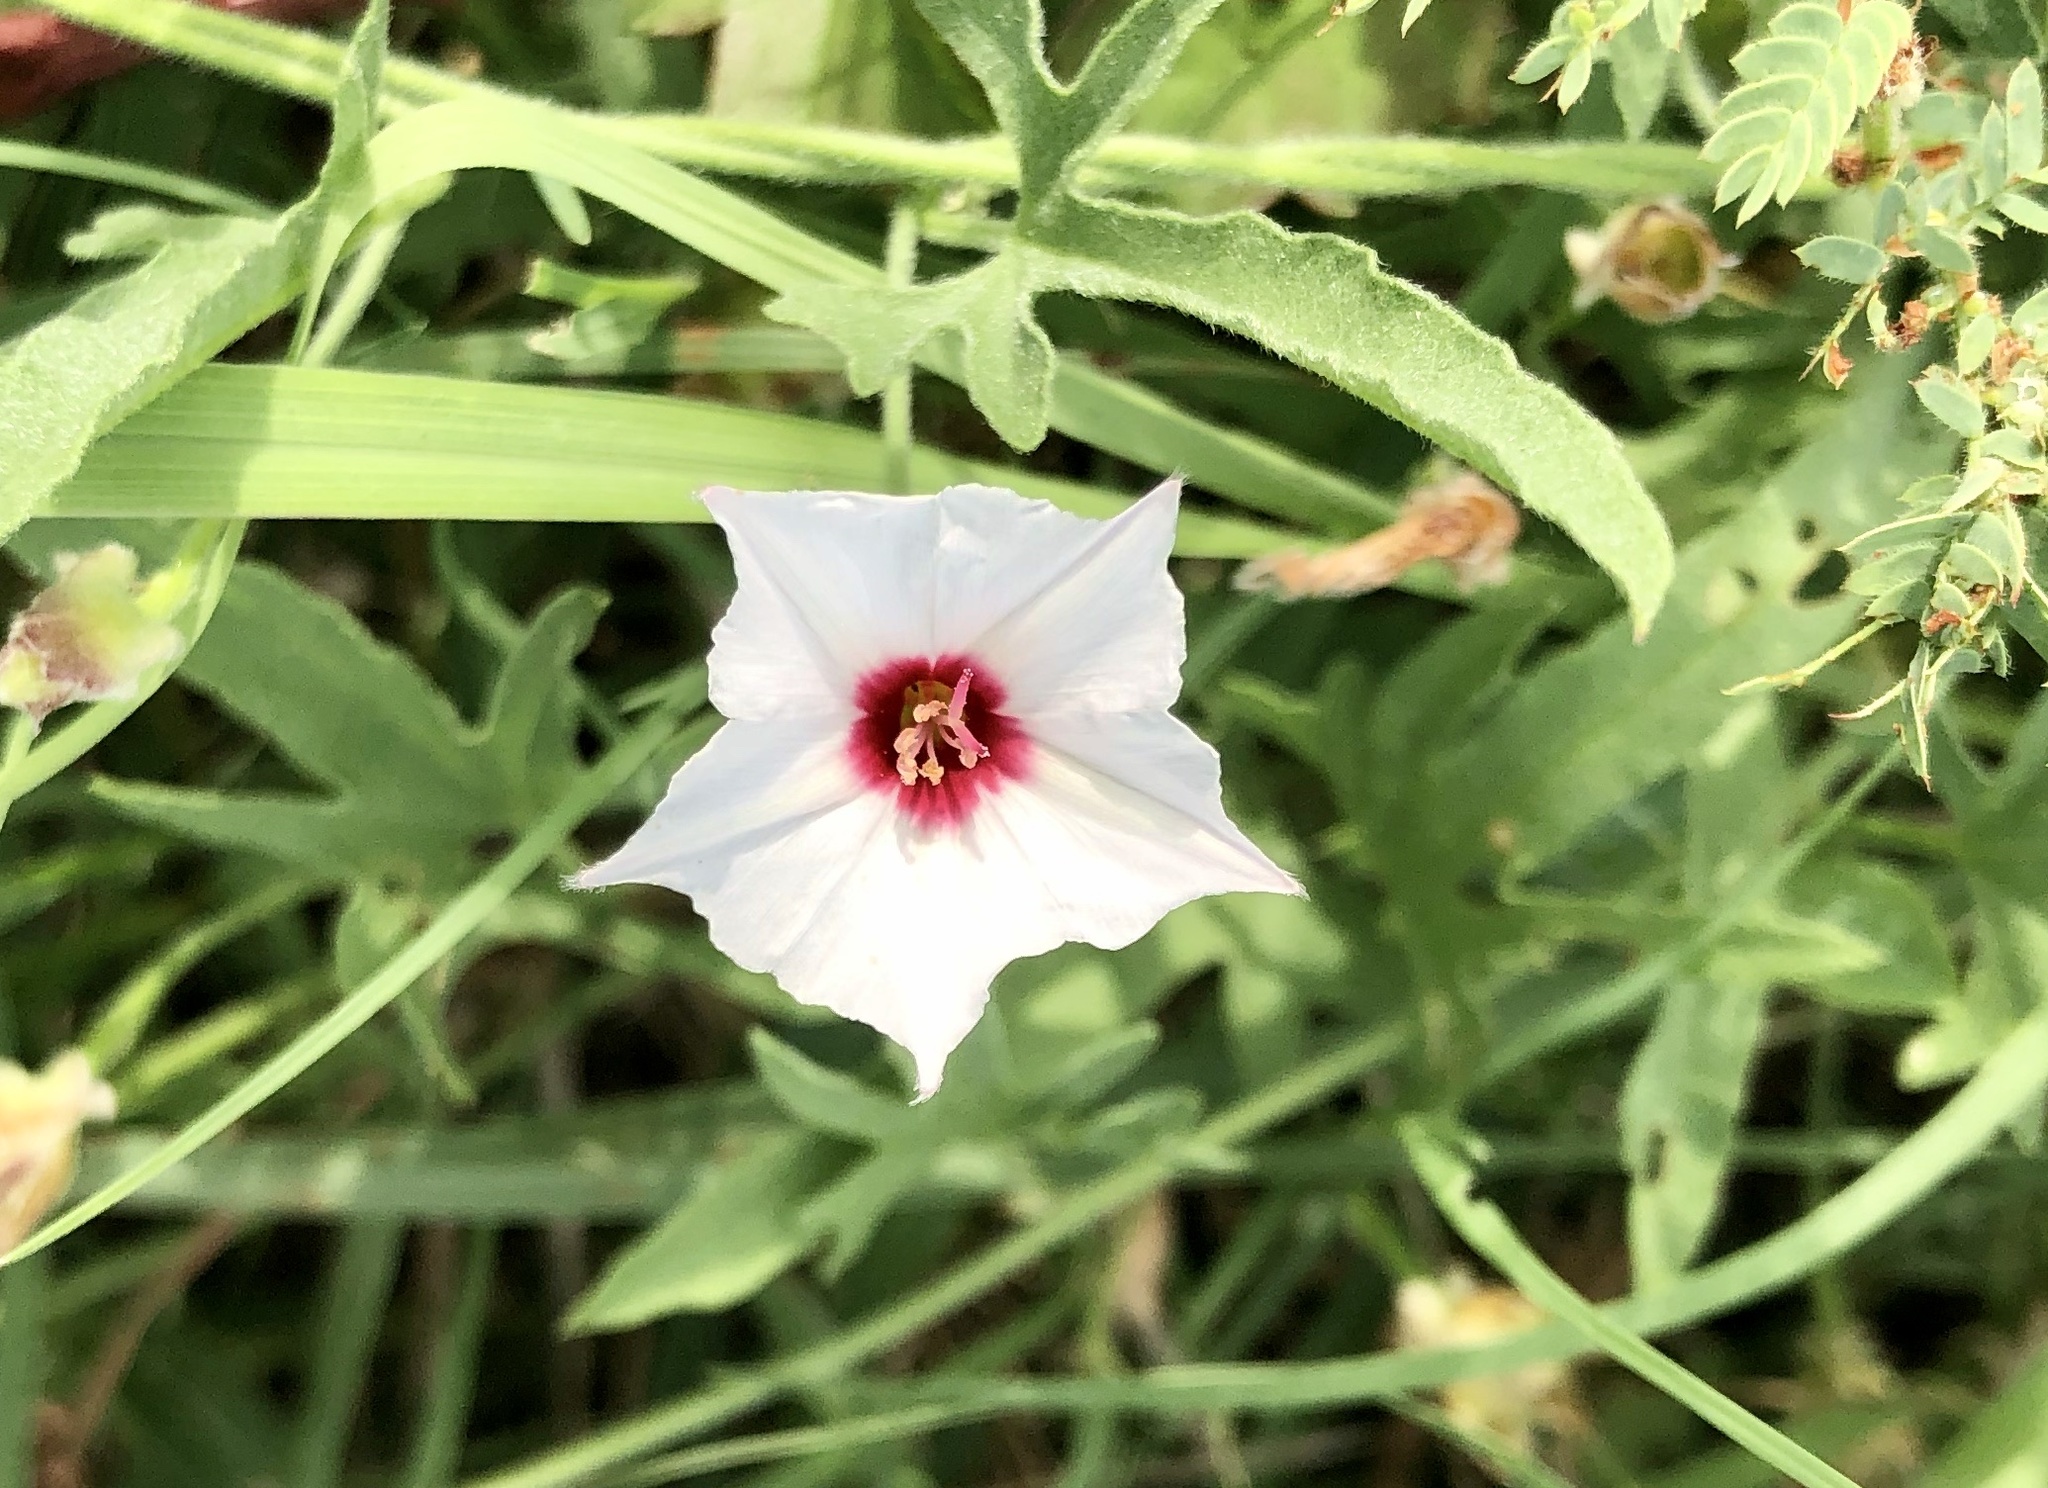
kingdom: Plantae
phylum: Tracheophyta
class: Magnoliopsida
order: Solanales
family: Convolvulaceae
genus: Convolvulus
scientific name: Convolvulus equitans
